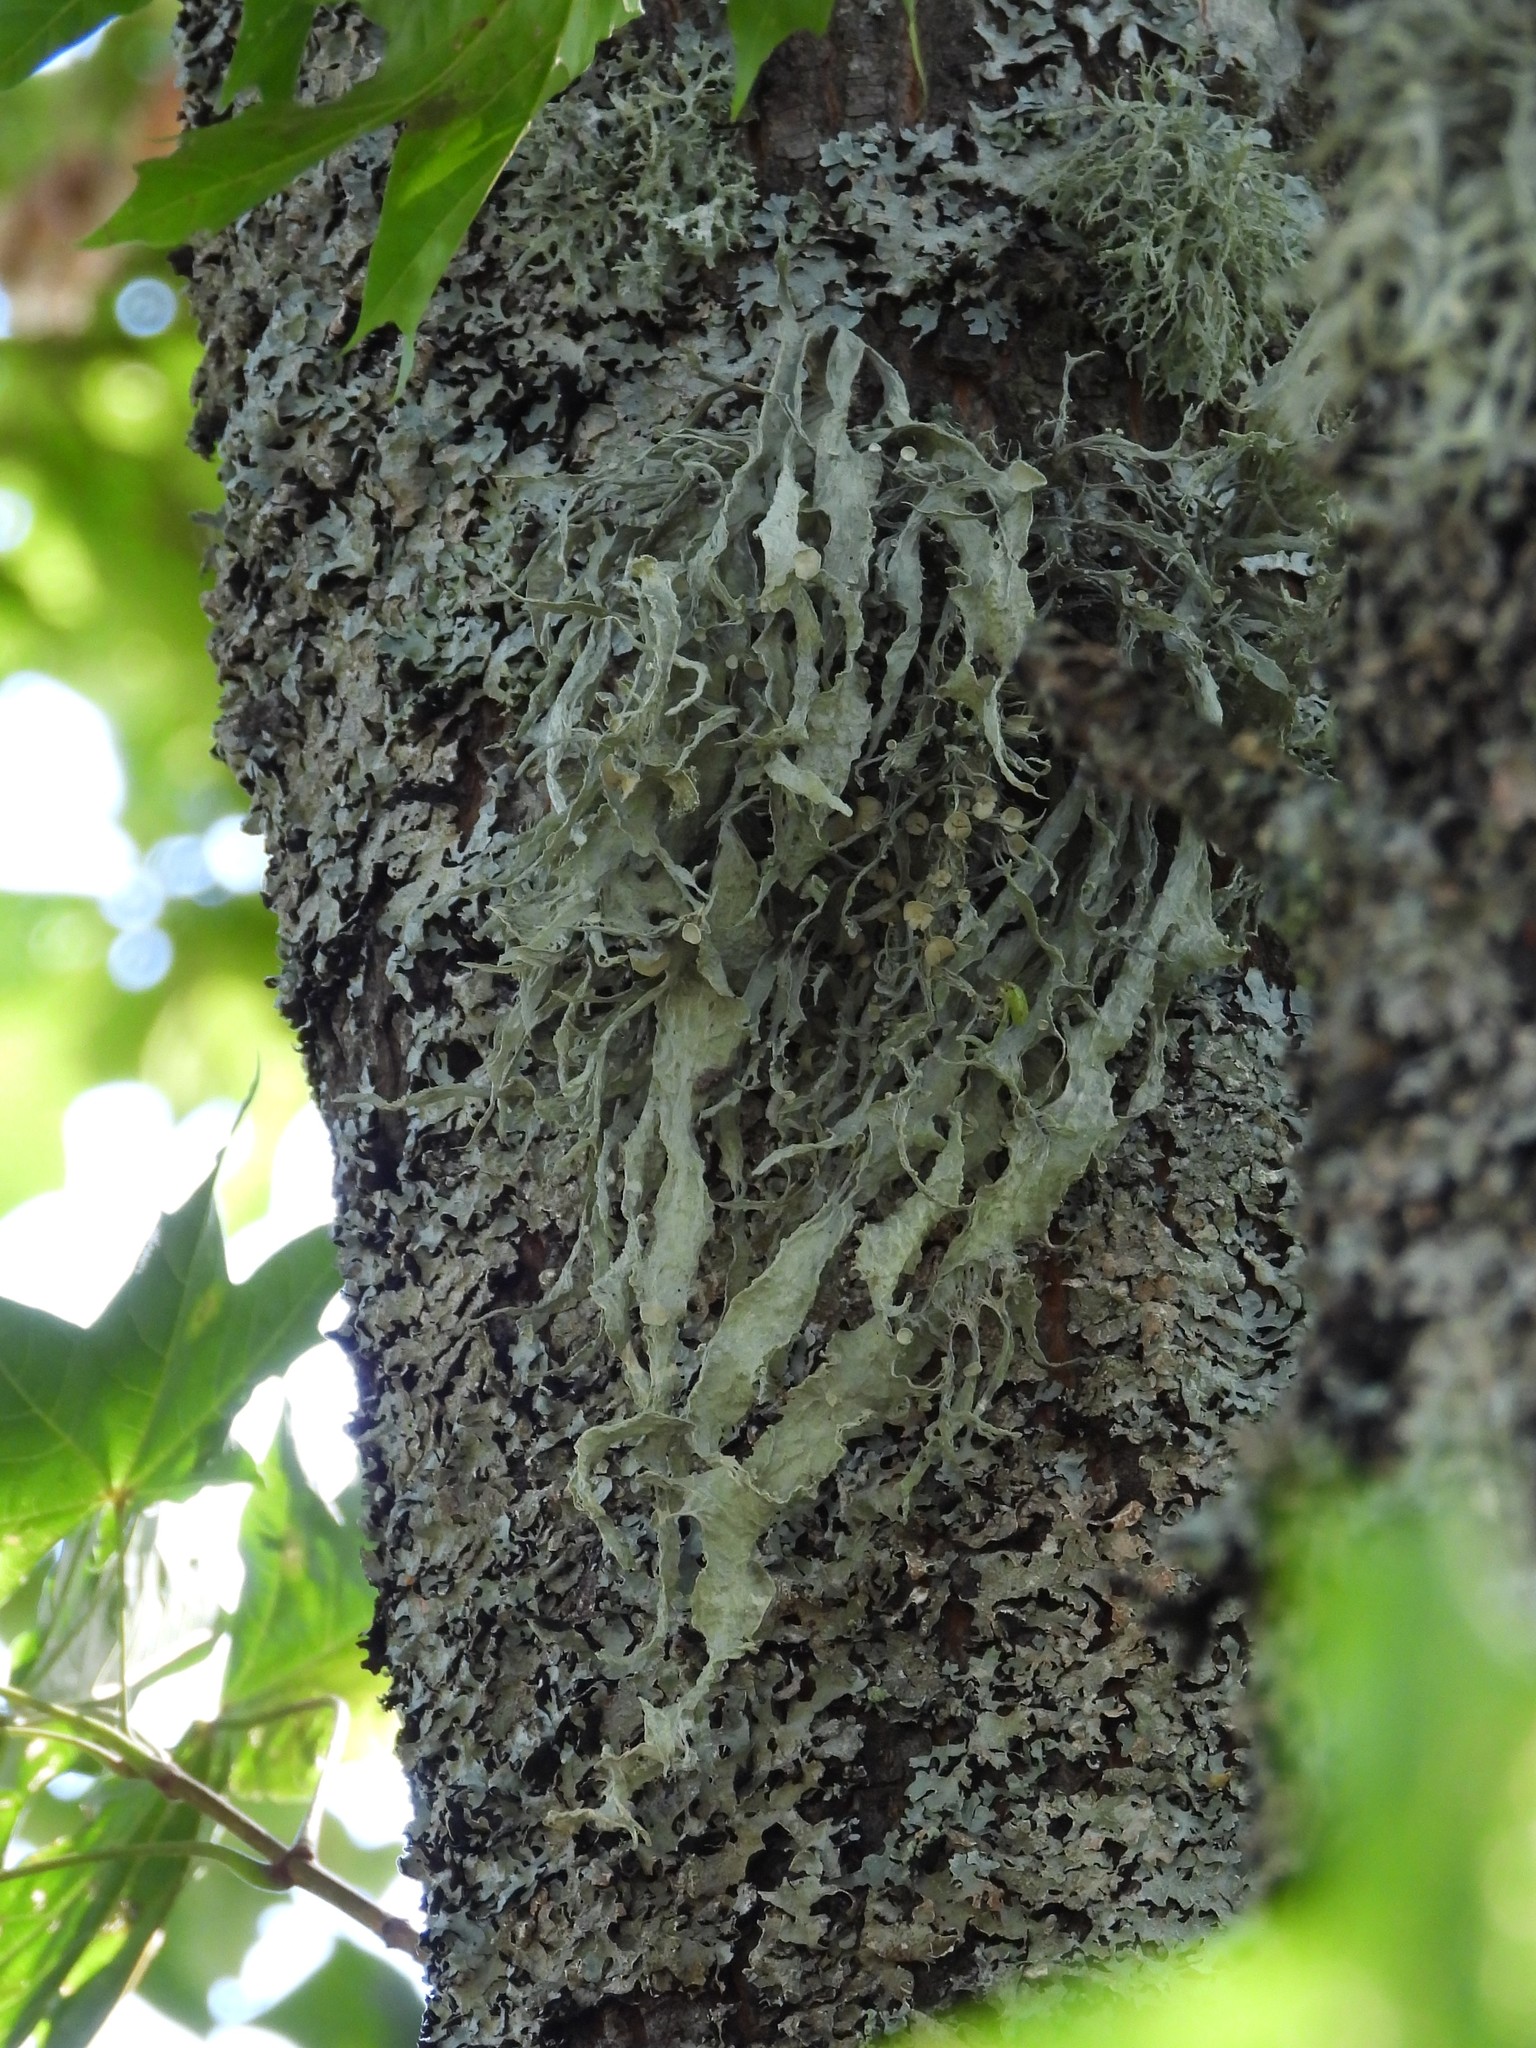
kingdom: Fungi
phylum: Ascomycota
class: Lecanoromycetes
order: Lecanorales
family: Ramalinaceae
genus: Ramalina
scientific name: Ramalina fraxinea
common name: Cartilage lichen
